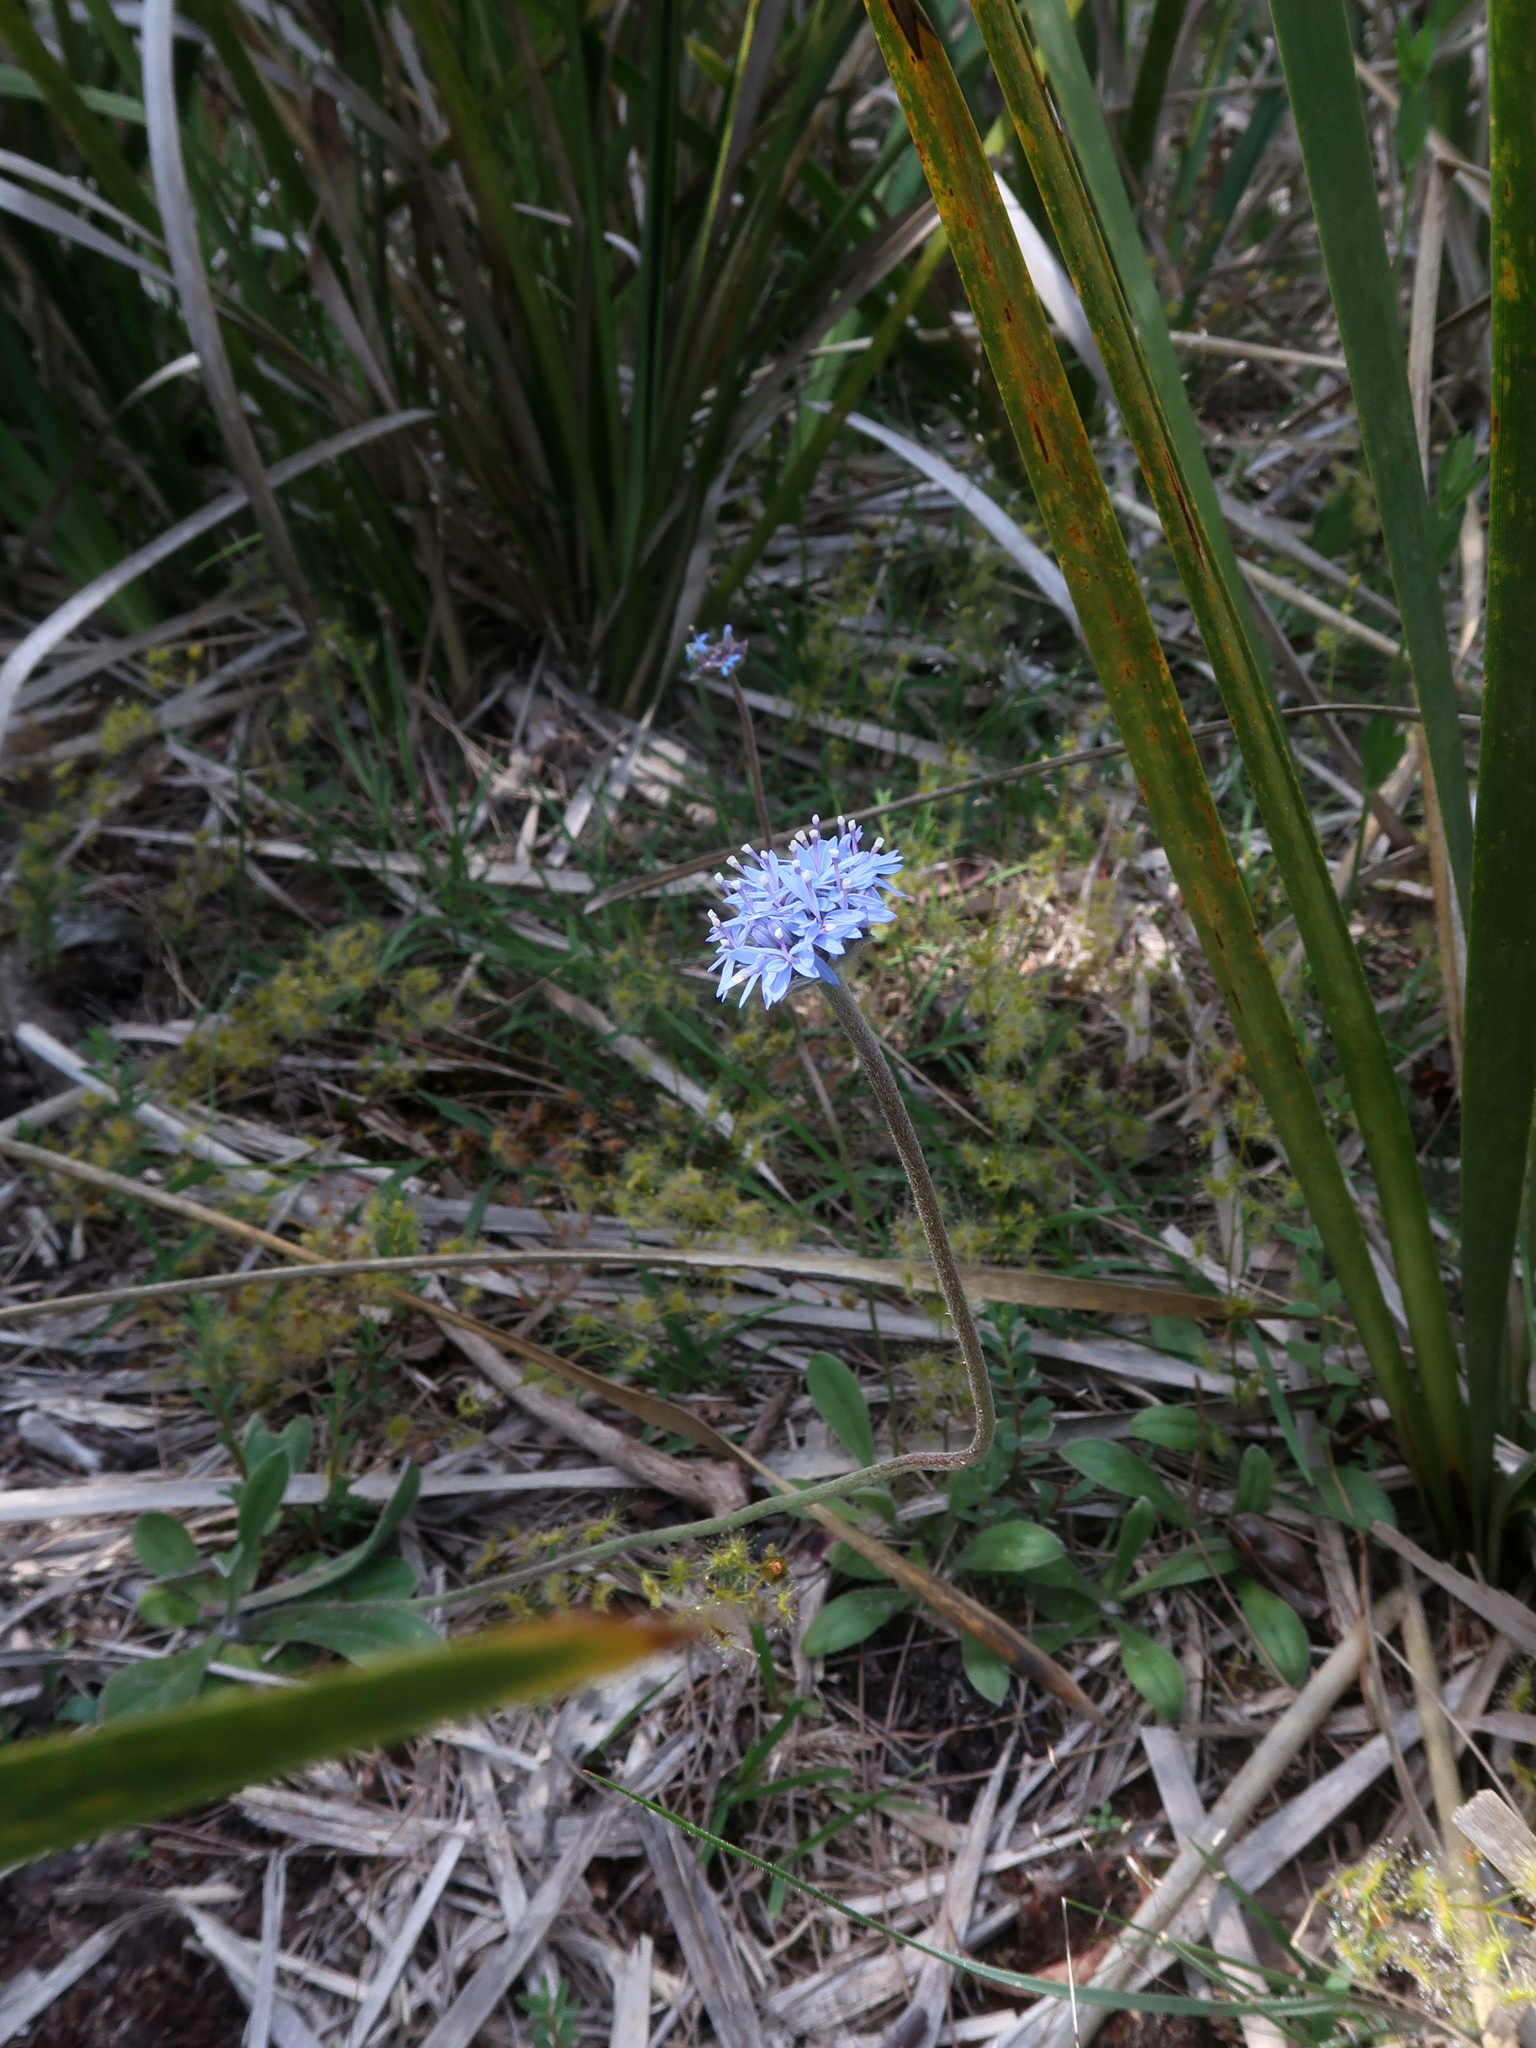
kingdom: Plantae
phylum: Tracheophyta
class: Magnoliopsida
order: Asterales
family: Goodeniaceae
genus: Brunonia
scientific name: Brunonia australis
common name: Blue pincushion
